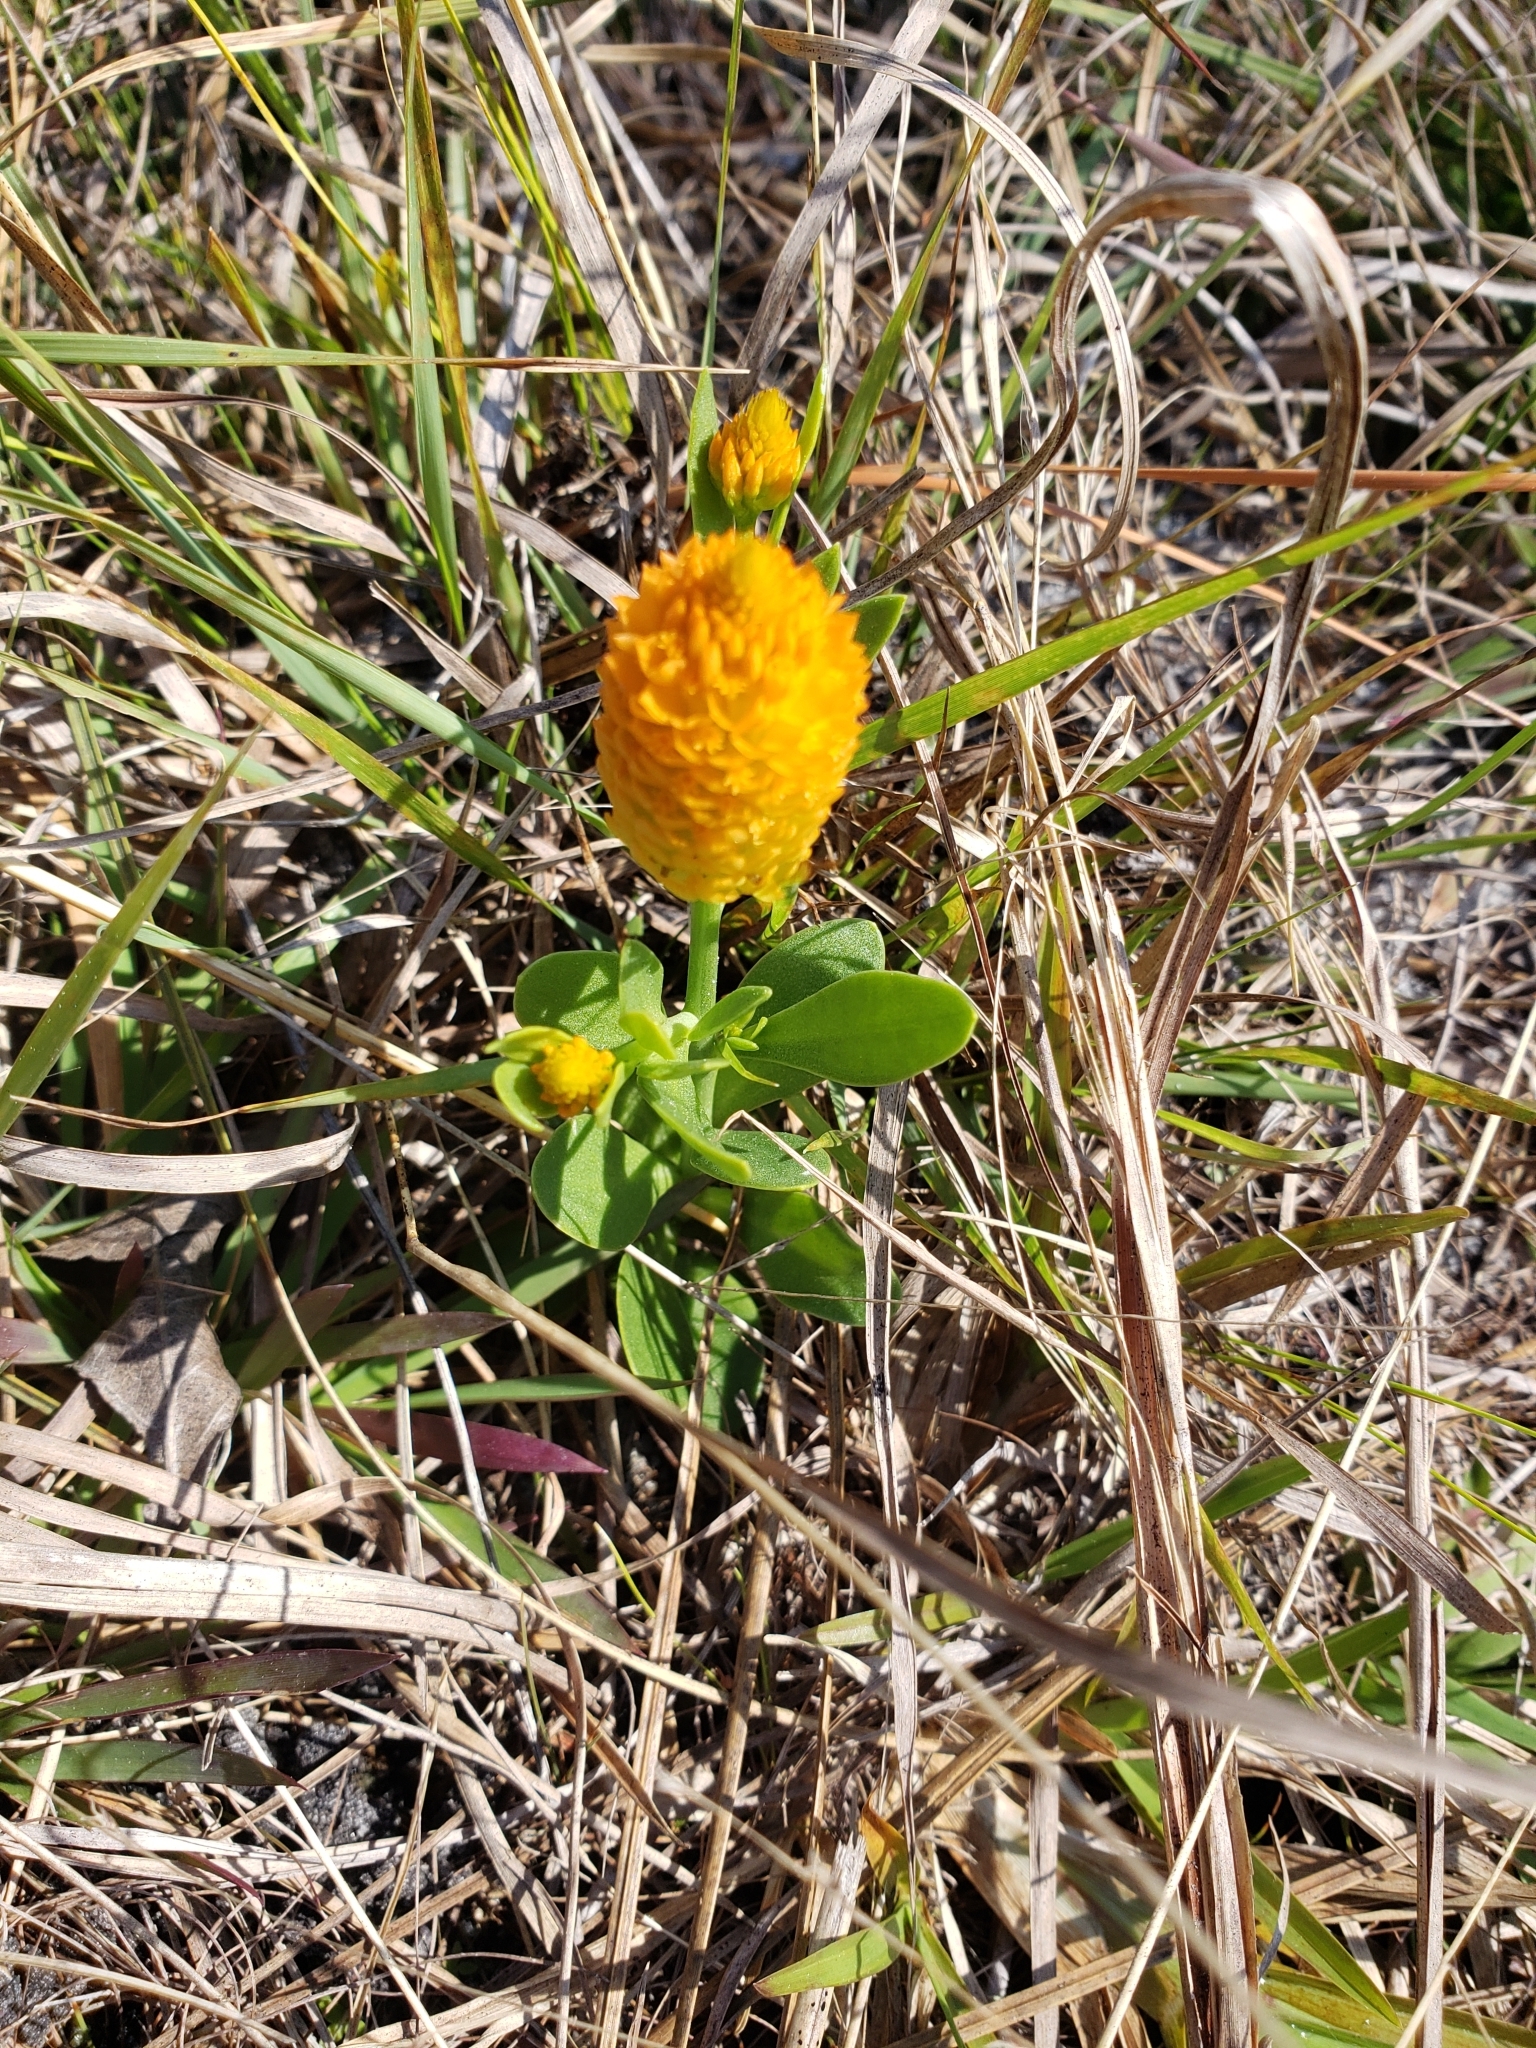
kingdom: Plantae
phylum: Tracheophyta
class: Magnoliopsida
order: Fabales
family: Polygalaceae
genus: Polygala
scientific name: Polygala lutea
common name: Orange milkwort
